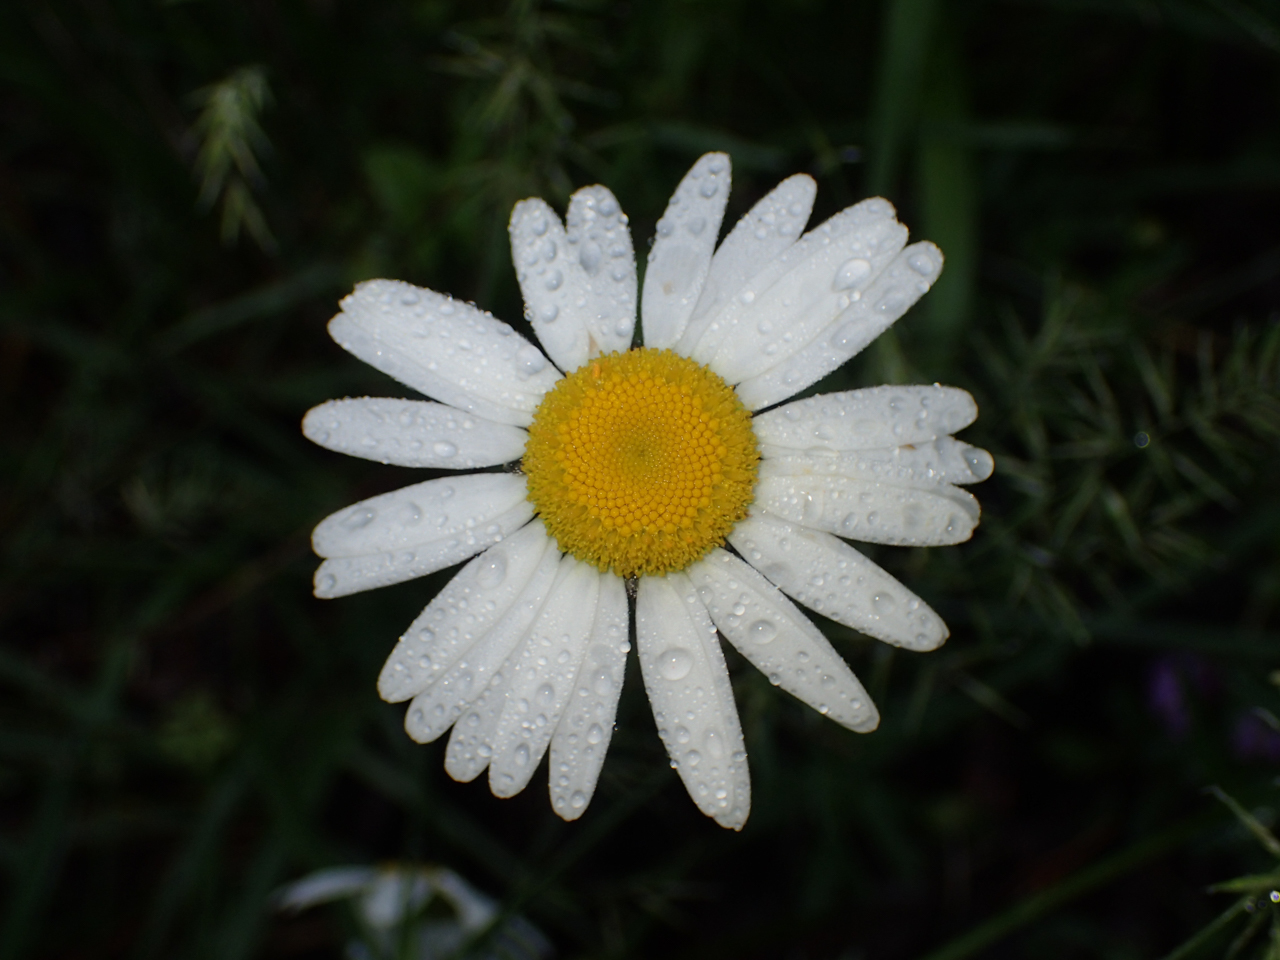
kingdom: Plantae
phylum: Tracheophyta
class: Magnoliopsida
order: Asterales
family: Asteraceae
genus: Leucanthemum
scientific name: Leucanthemum vulgare
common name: Oxeye daisy
